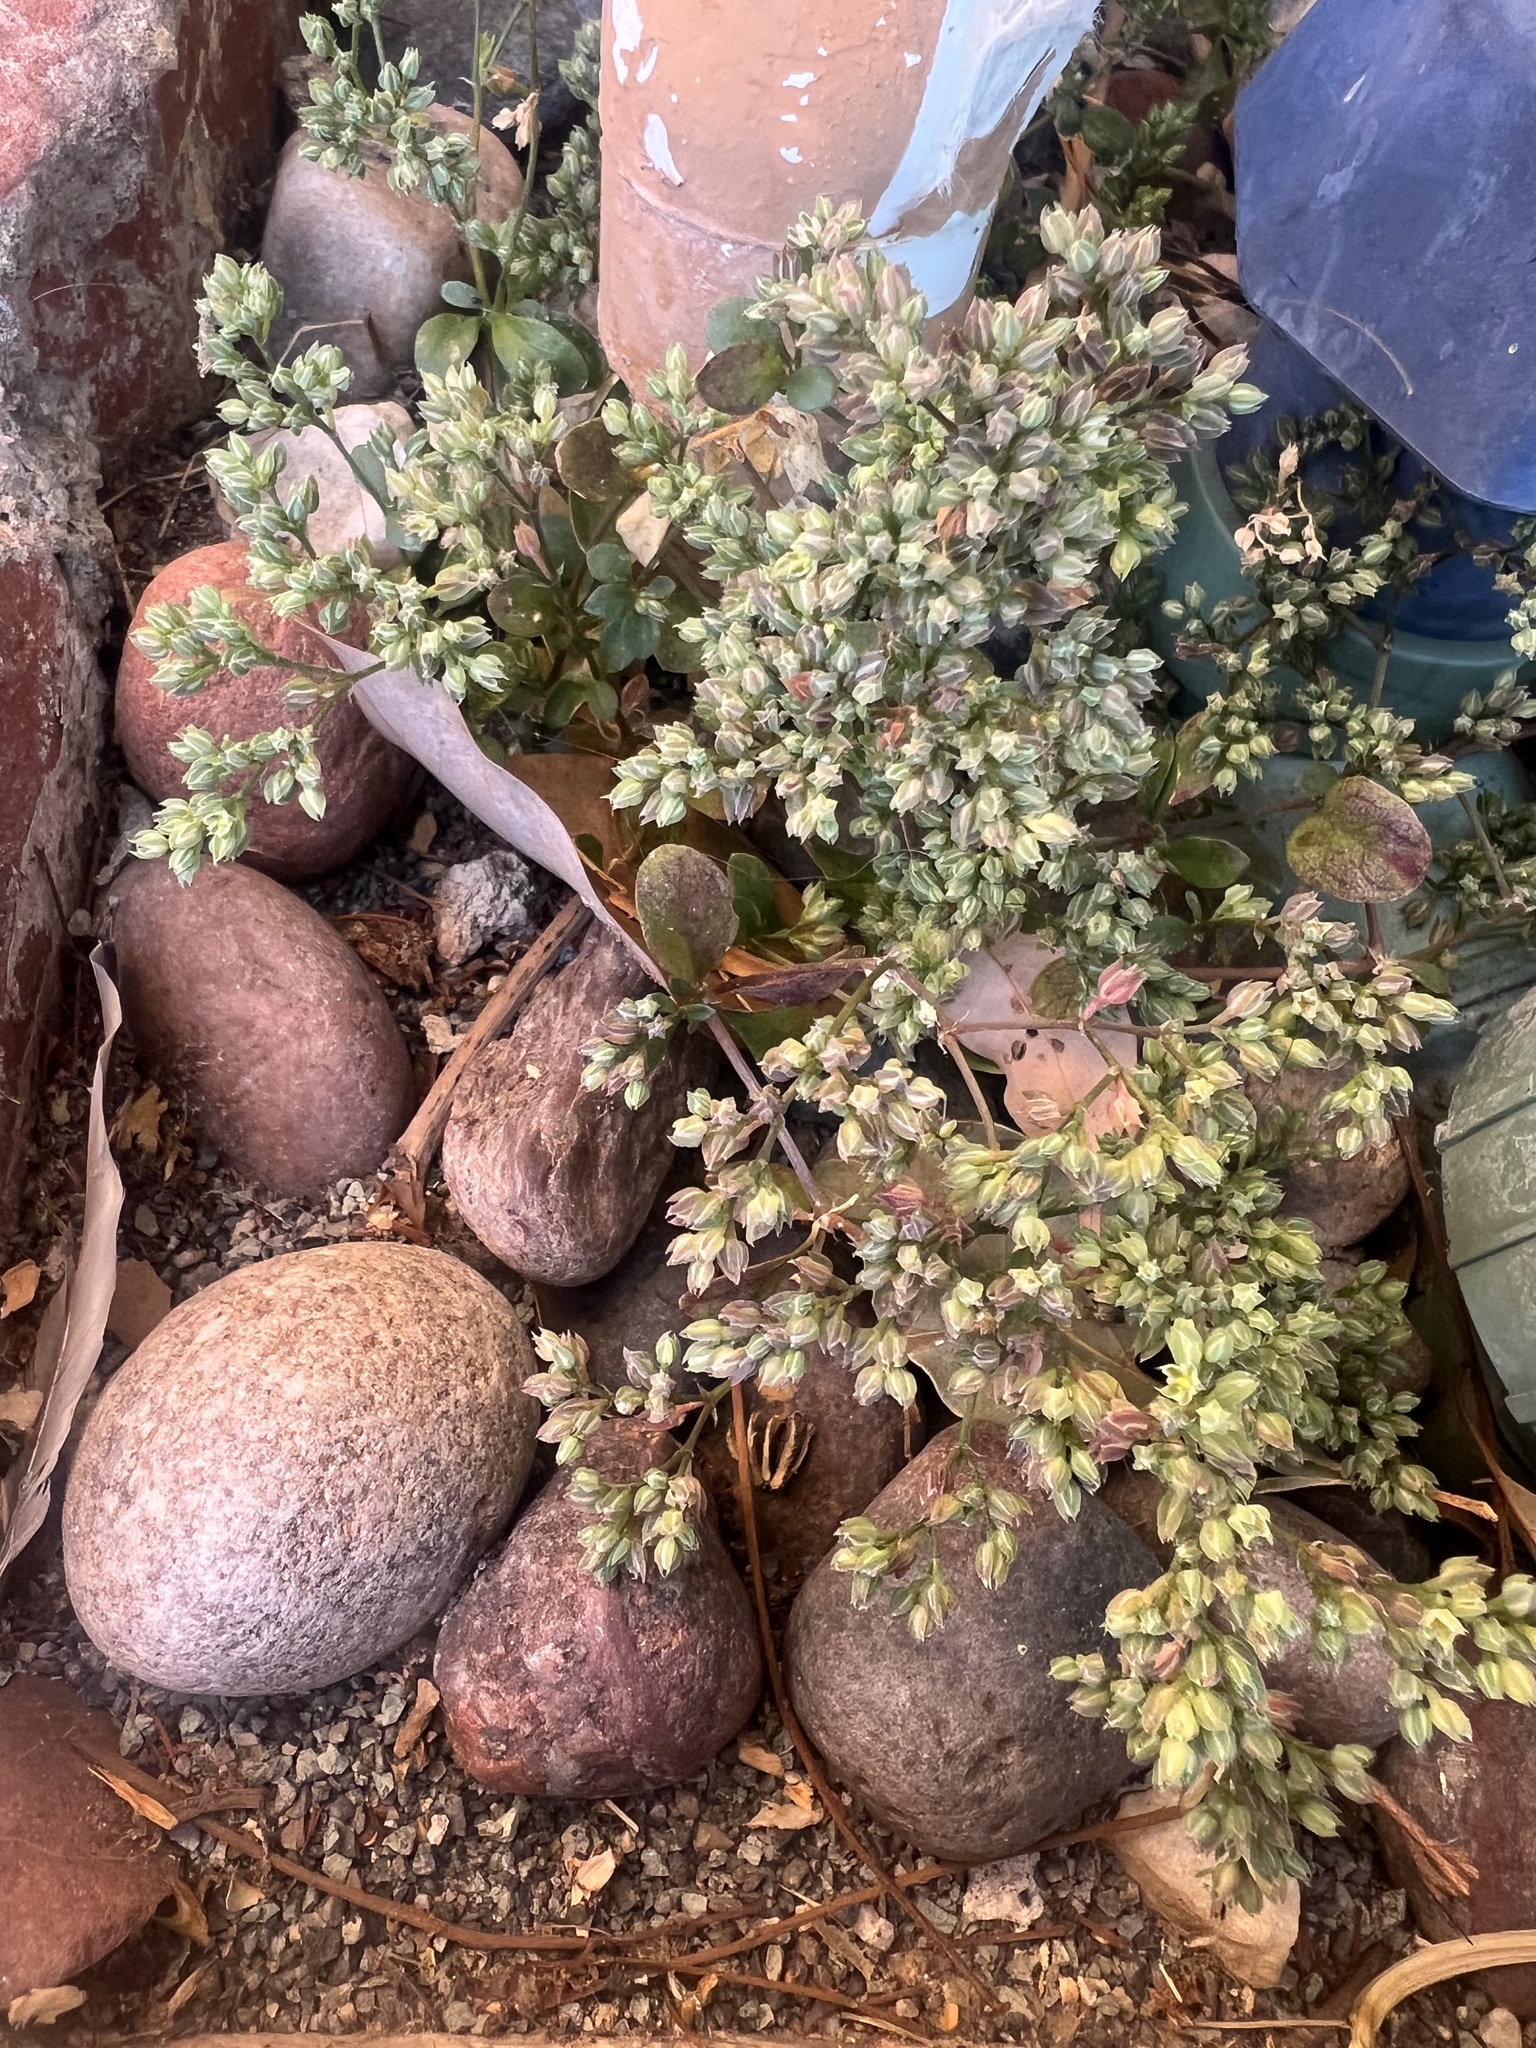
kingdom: Plantae
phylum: Tracheophyta
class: Magnoliopsida
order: Caryophyllales
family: Caryophyllaceae
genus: Polycarpon
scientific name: Polycarpon tetraphyllum
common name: Four-leaved all-seed
